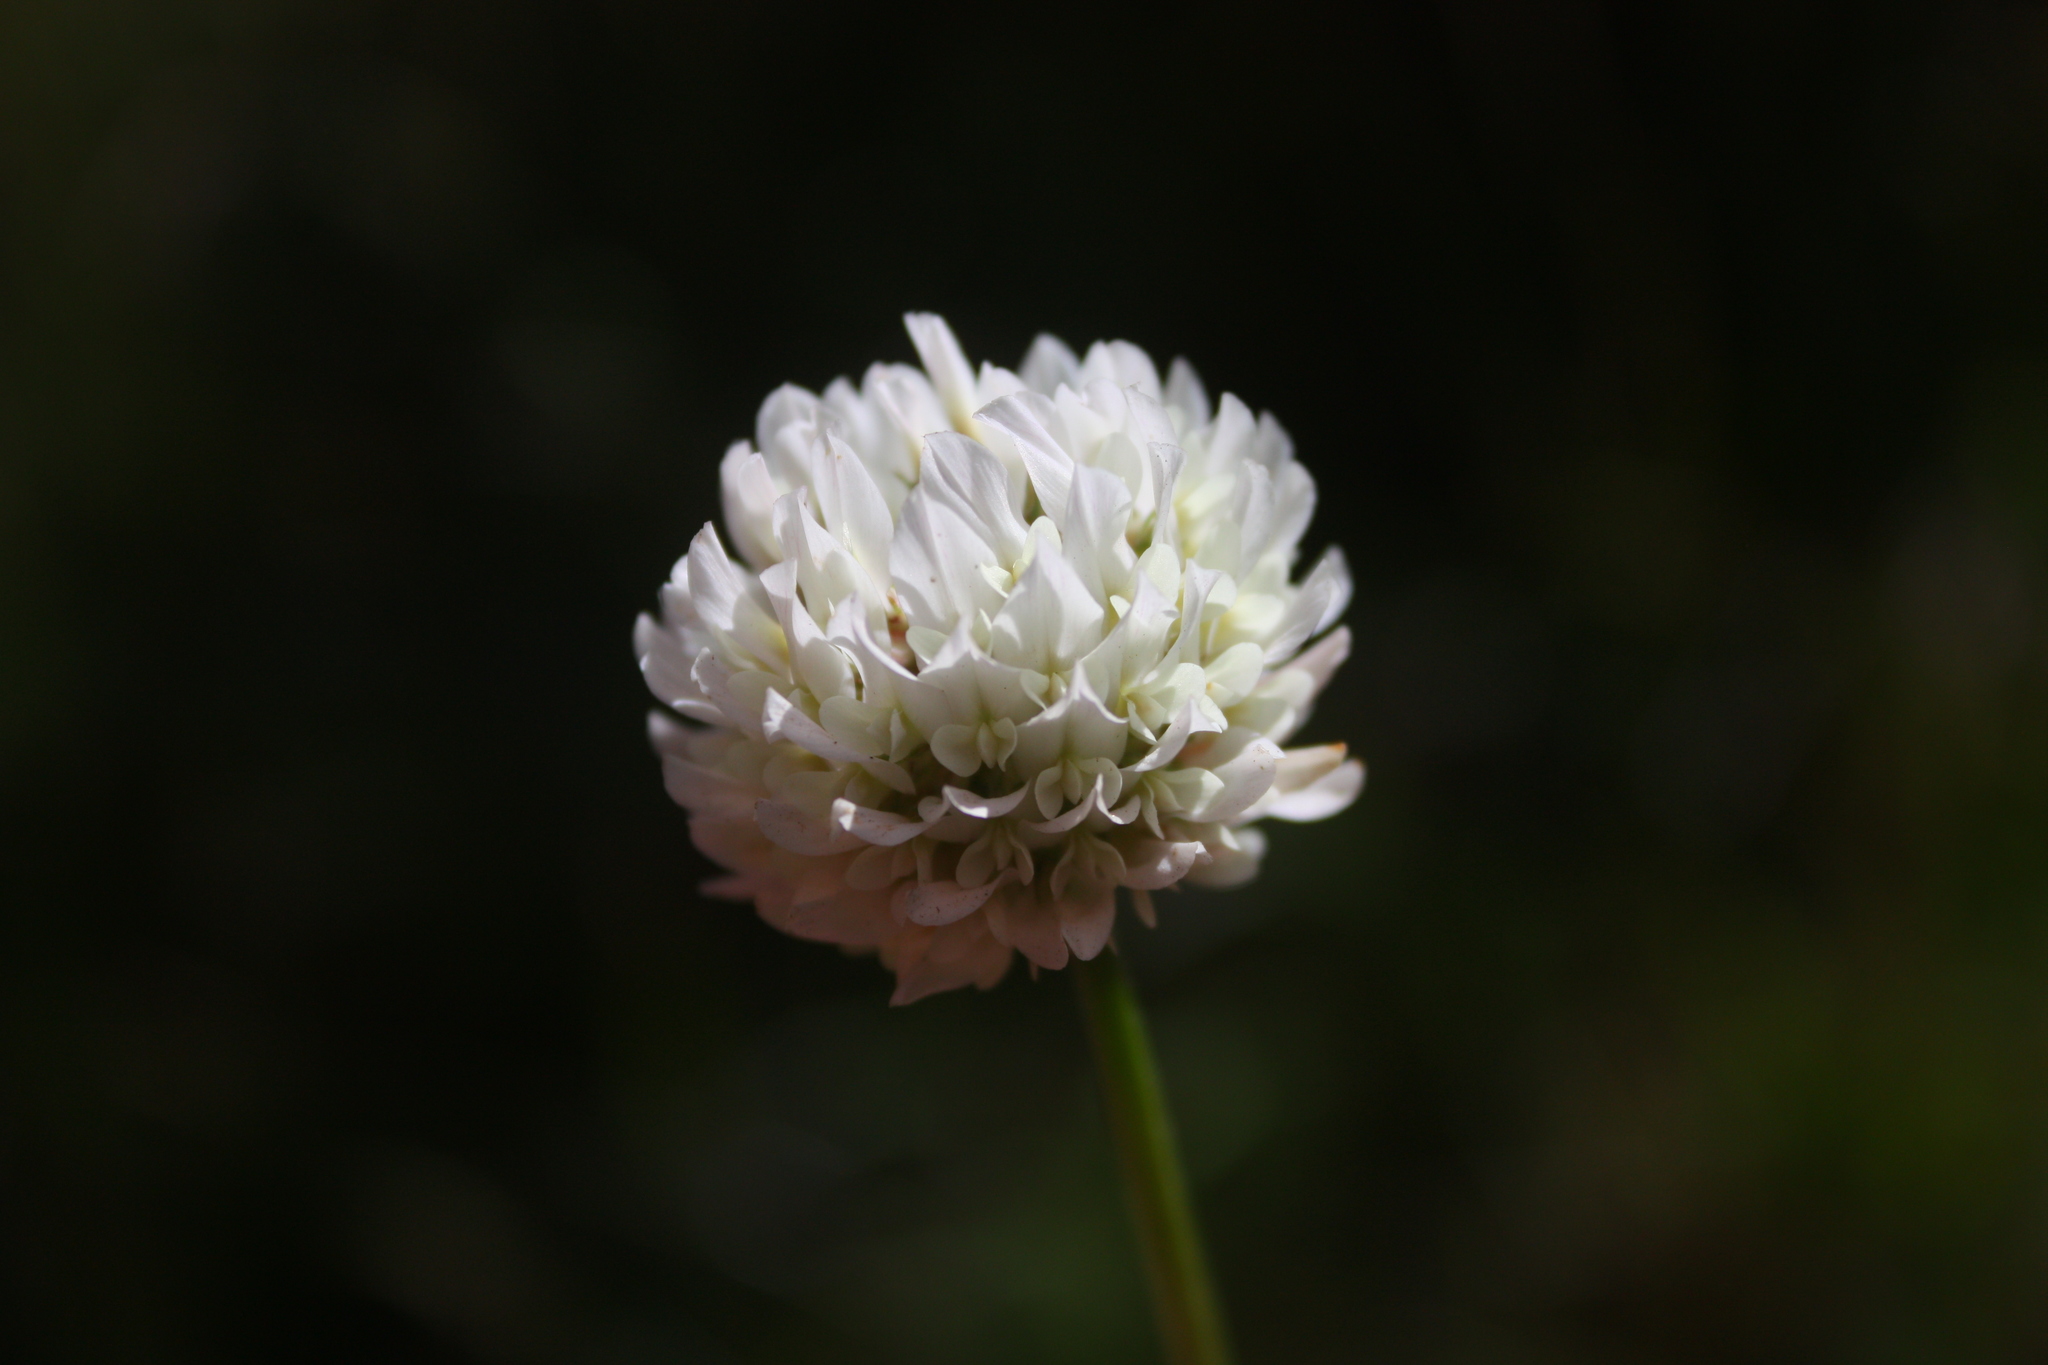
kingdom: Plantae
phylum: Tracheophyta
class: Magnoliopsida
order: Fabales
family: Fabaceae
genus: Trifolium
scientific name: Trifolium repens
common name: White clover
